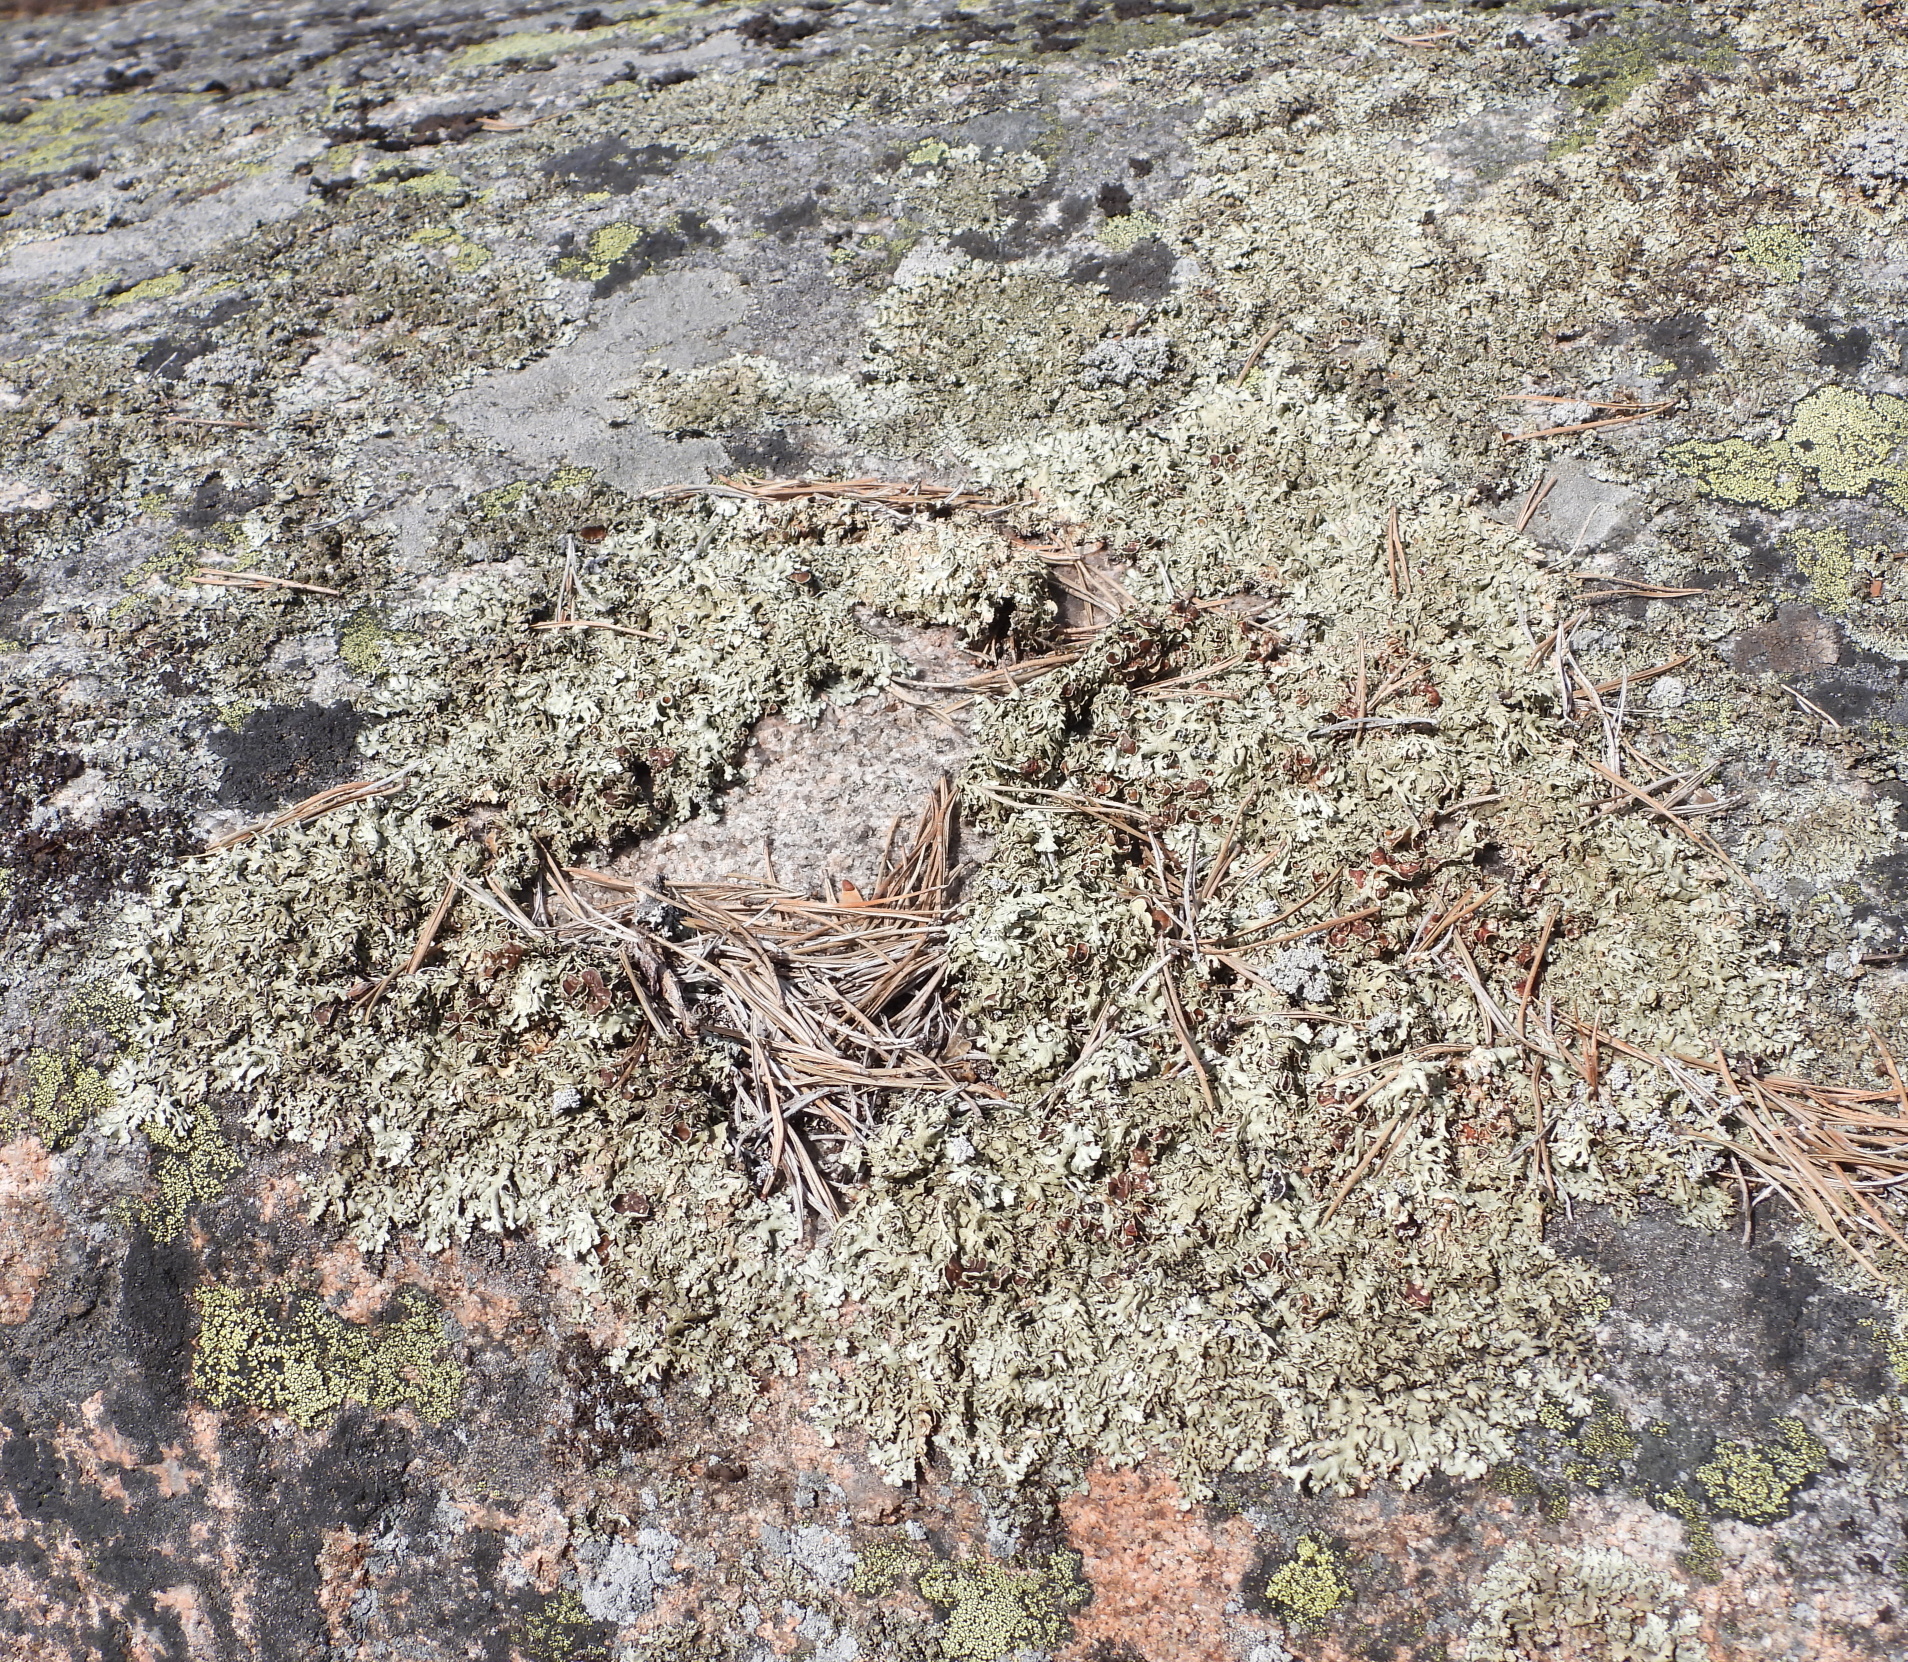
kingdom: Fungi
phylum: Ascomycota
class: Lecanoromycetes
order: Lecanorales
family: Parmeliaceae
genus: Xanthoparmelia
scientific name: Xanthoparmelia stenophylla
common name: Shingled rock shield
